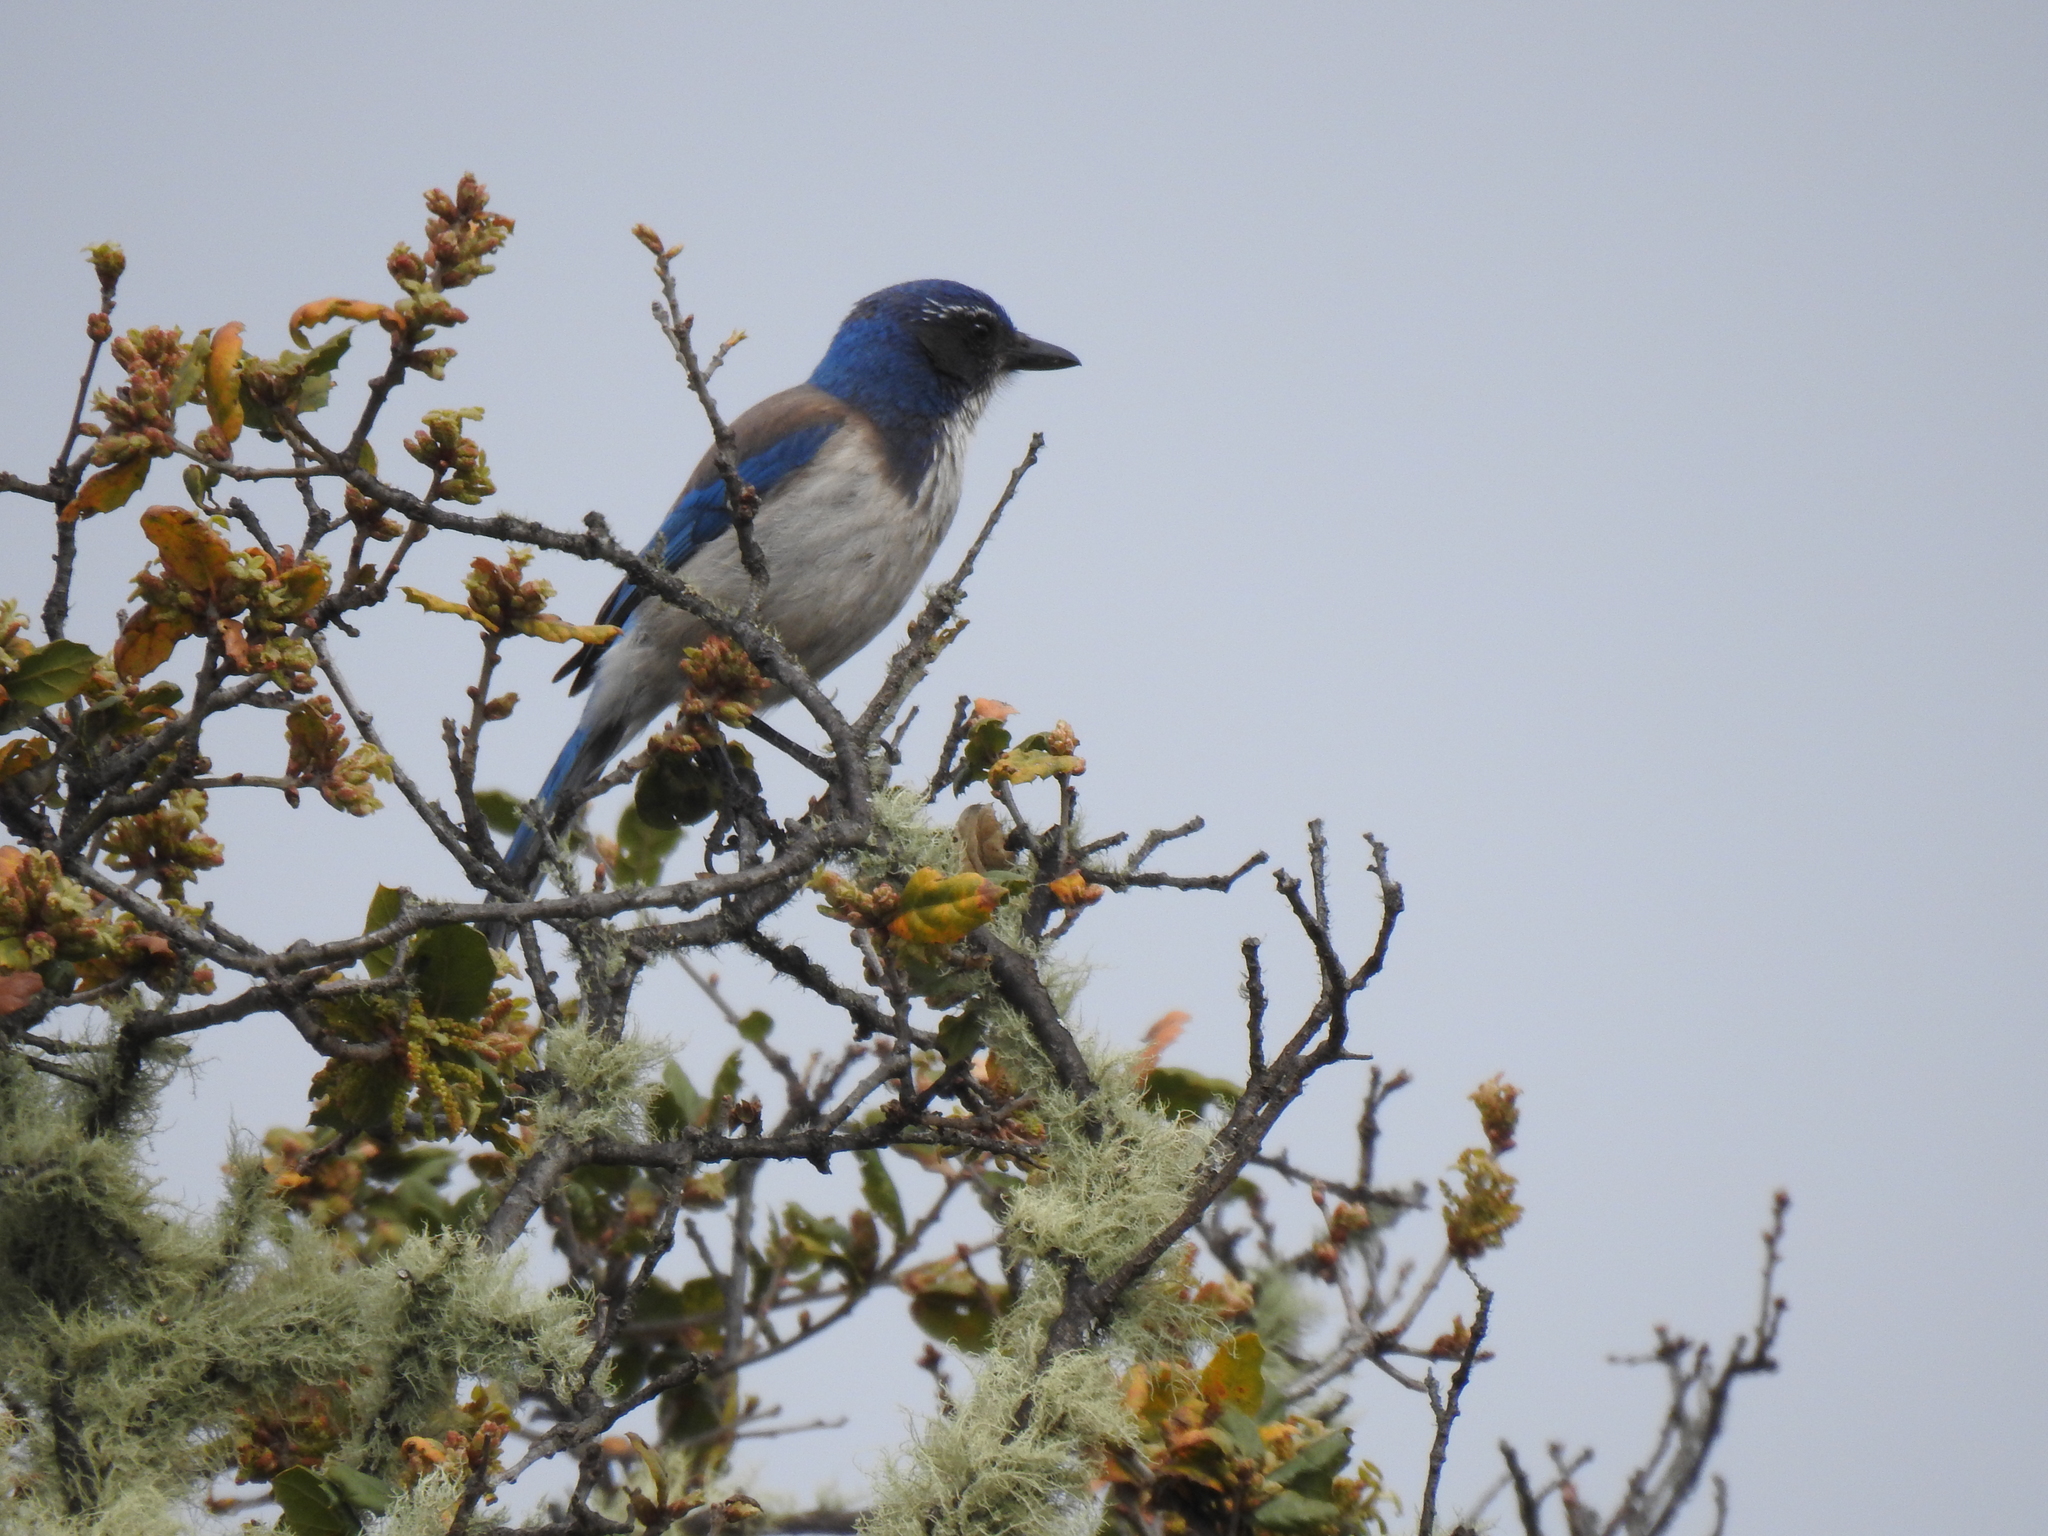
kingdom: Animalia
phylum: Chordata
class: Aves
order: Passeriformes
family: Corvidae
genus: Aphelocoma
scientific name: Aphelocoma californica
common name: California scrub-jay
